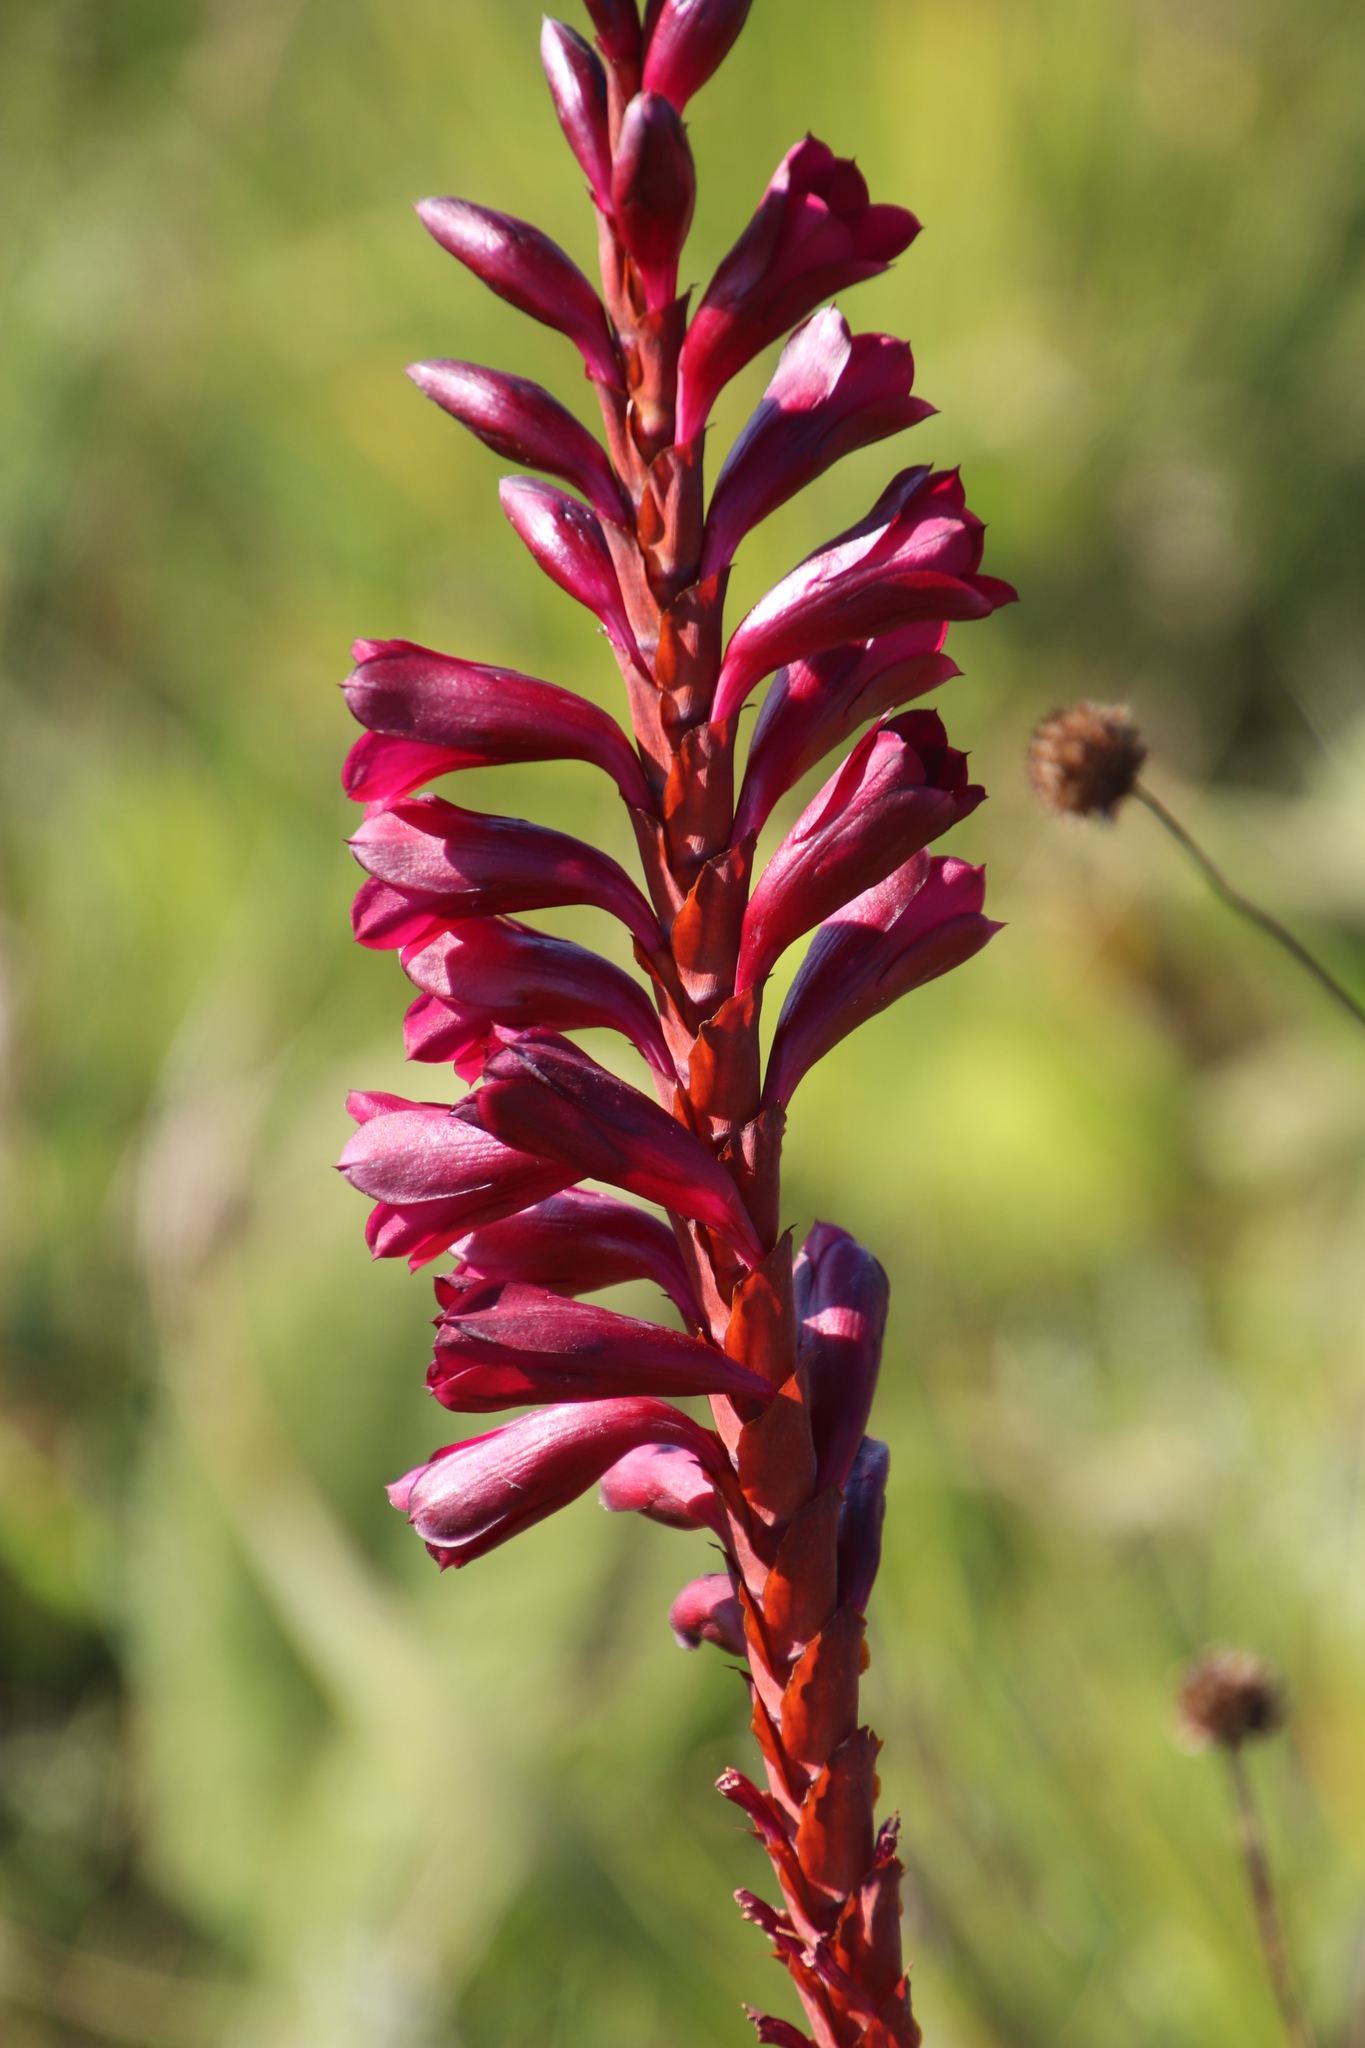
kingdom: Plantae
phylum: Tracheophyta
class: Liliopsida
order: Asparagales
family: Iridaceae
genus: Watsonia
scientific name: Watsonia pulchra
